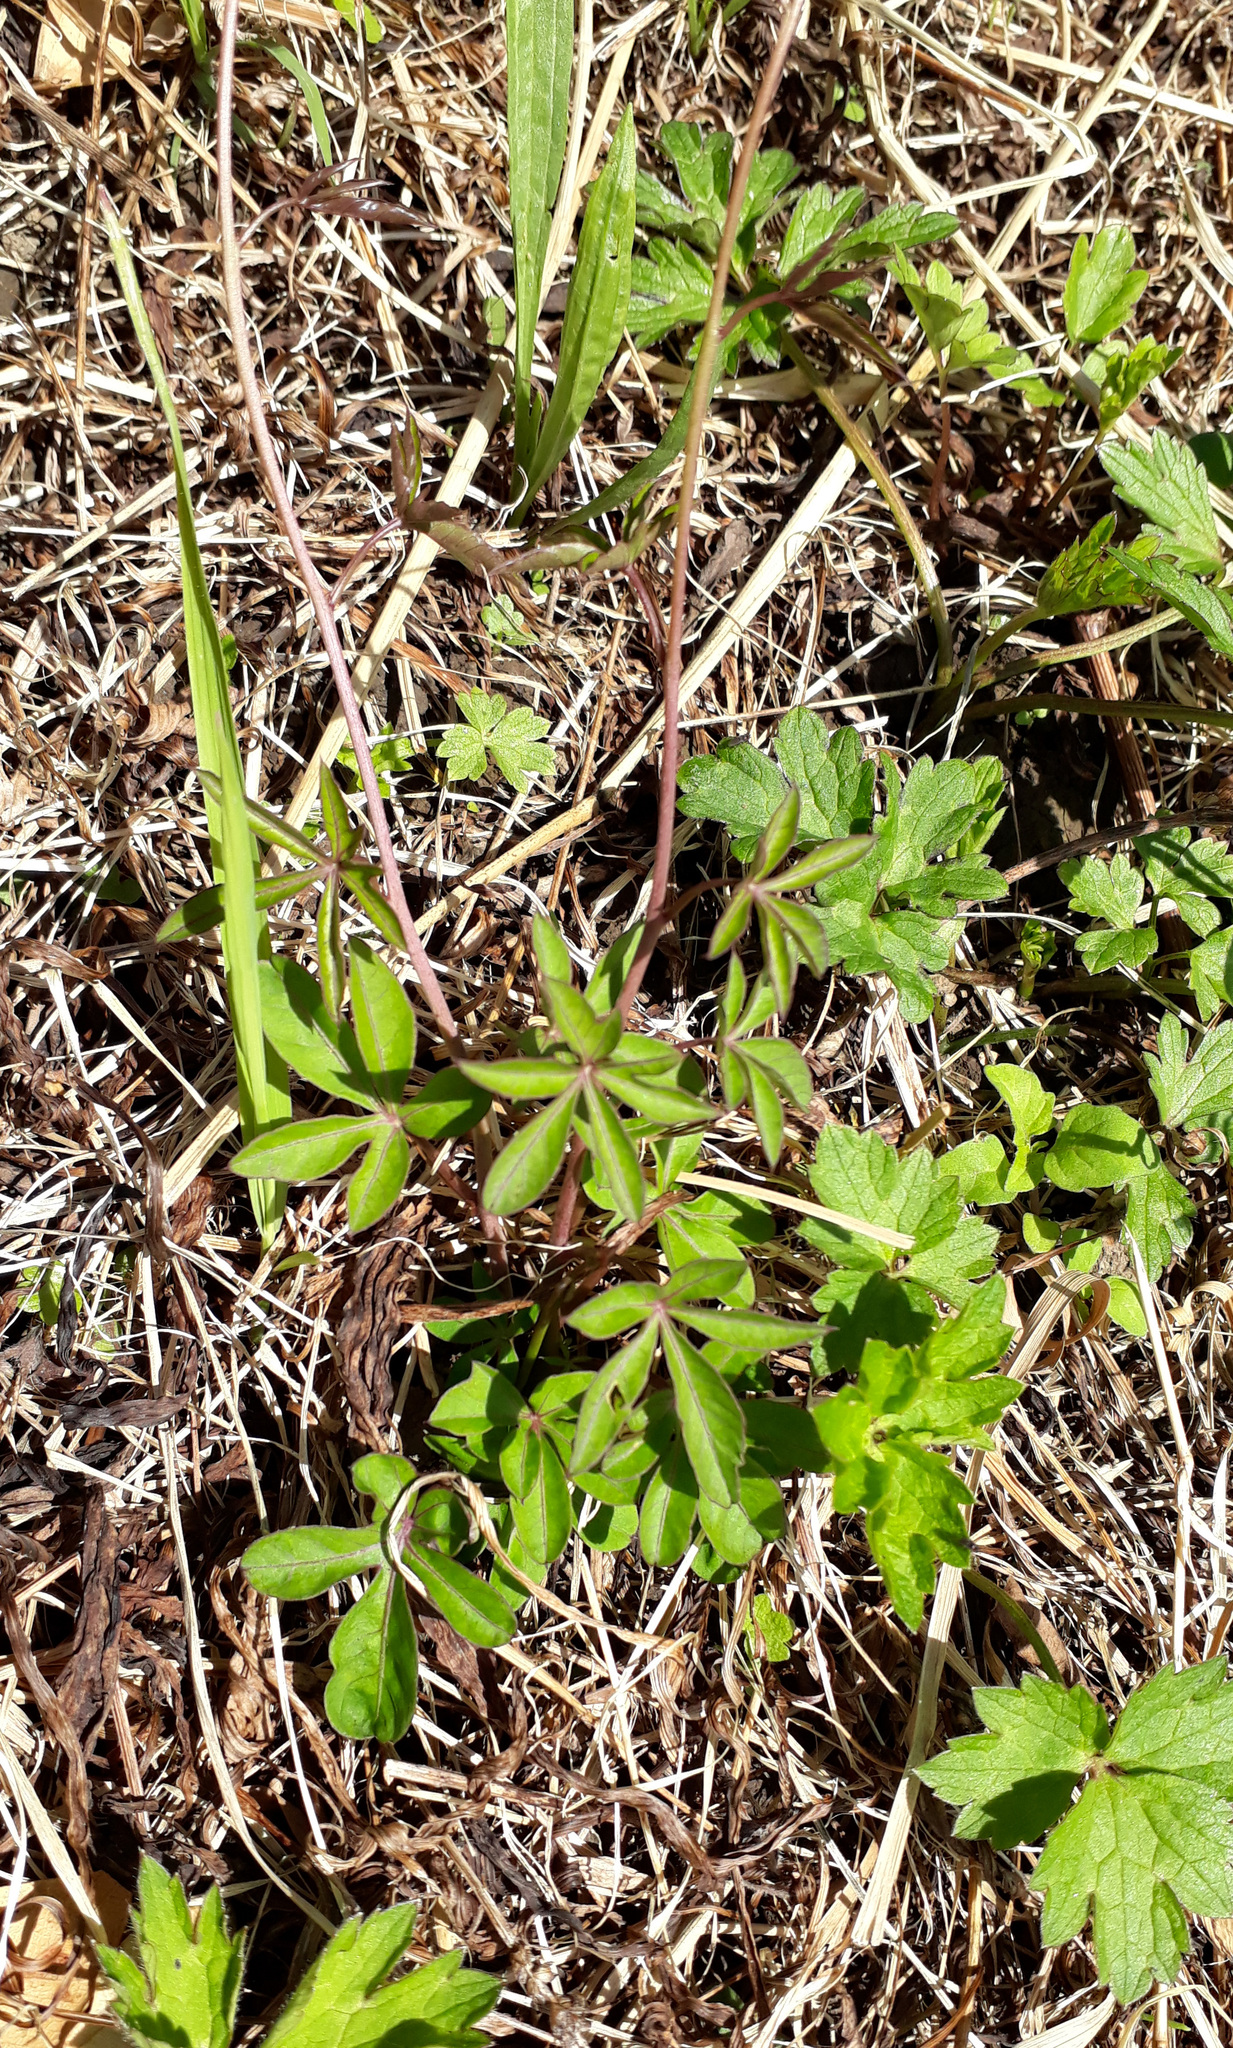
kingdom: Plantae
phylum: Tracheophyta
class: Magnoliopsida
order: Solanales
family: Convolvulaceae
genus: Ipomoea
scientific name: Ipomoea cairica
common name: Mile a minute vine
